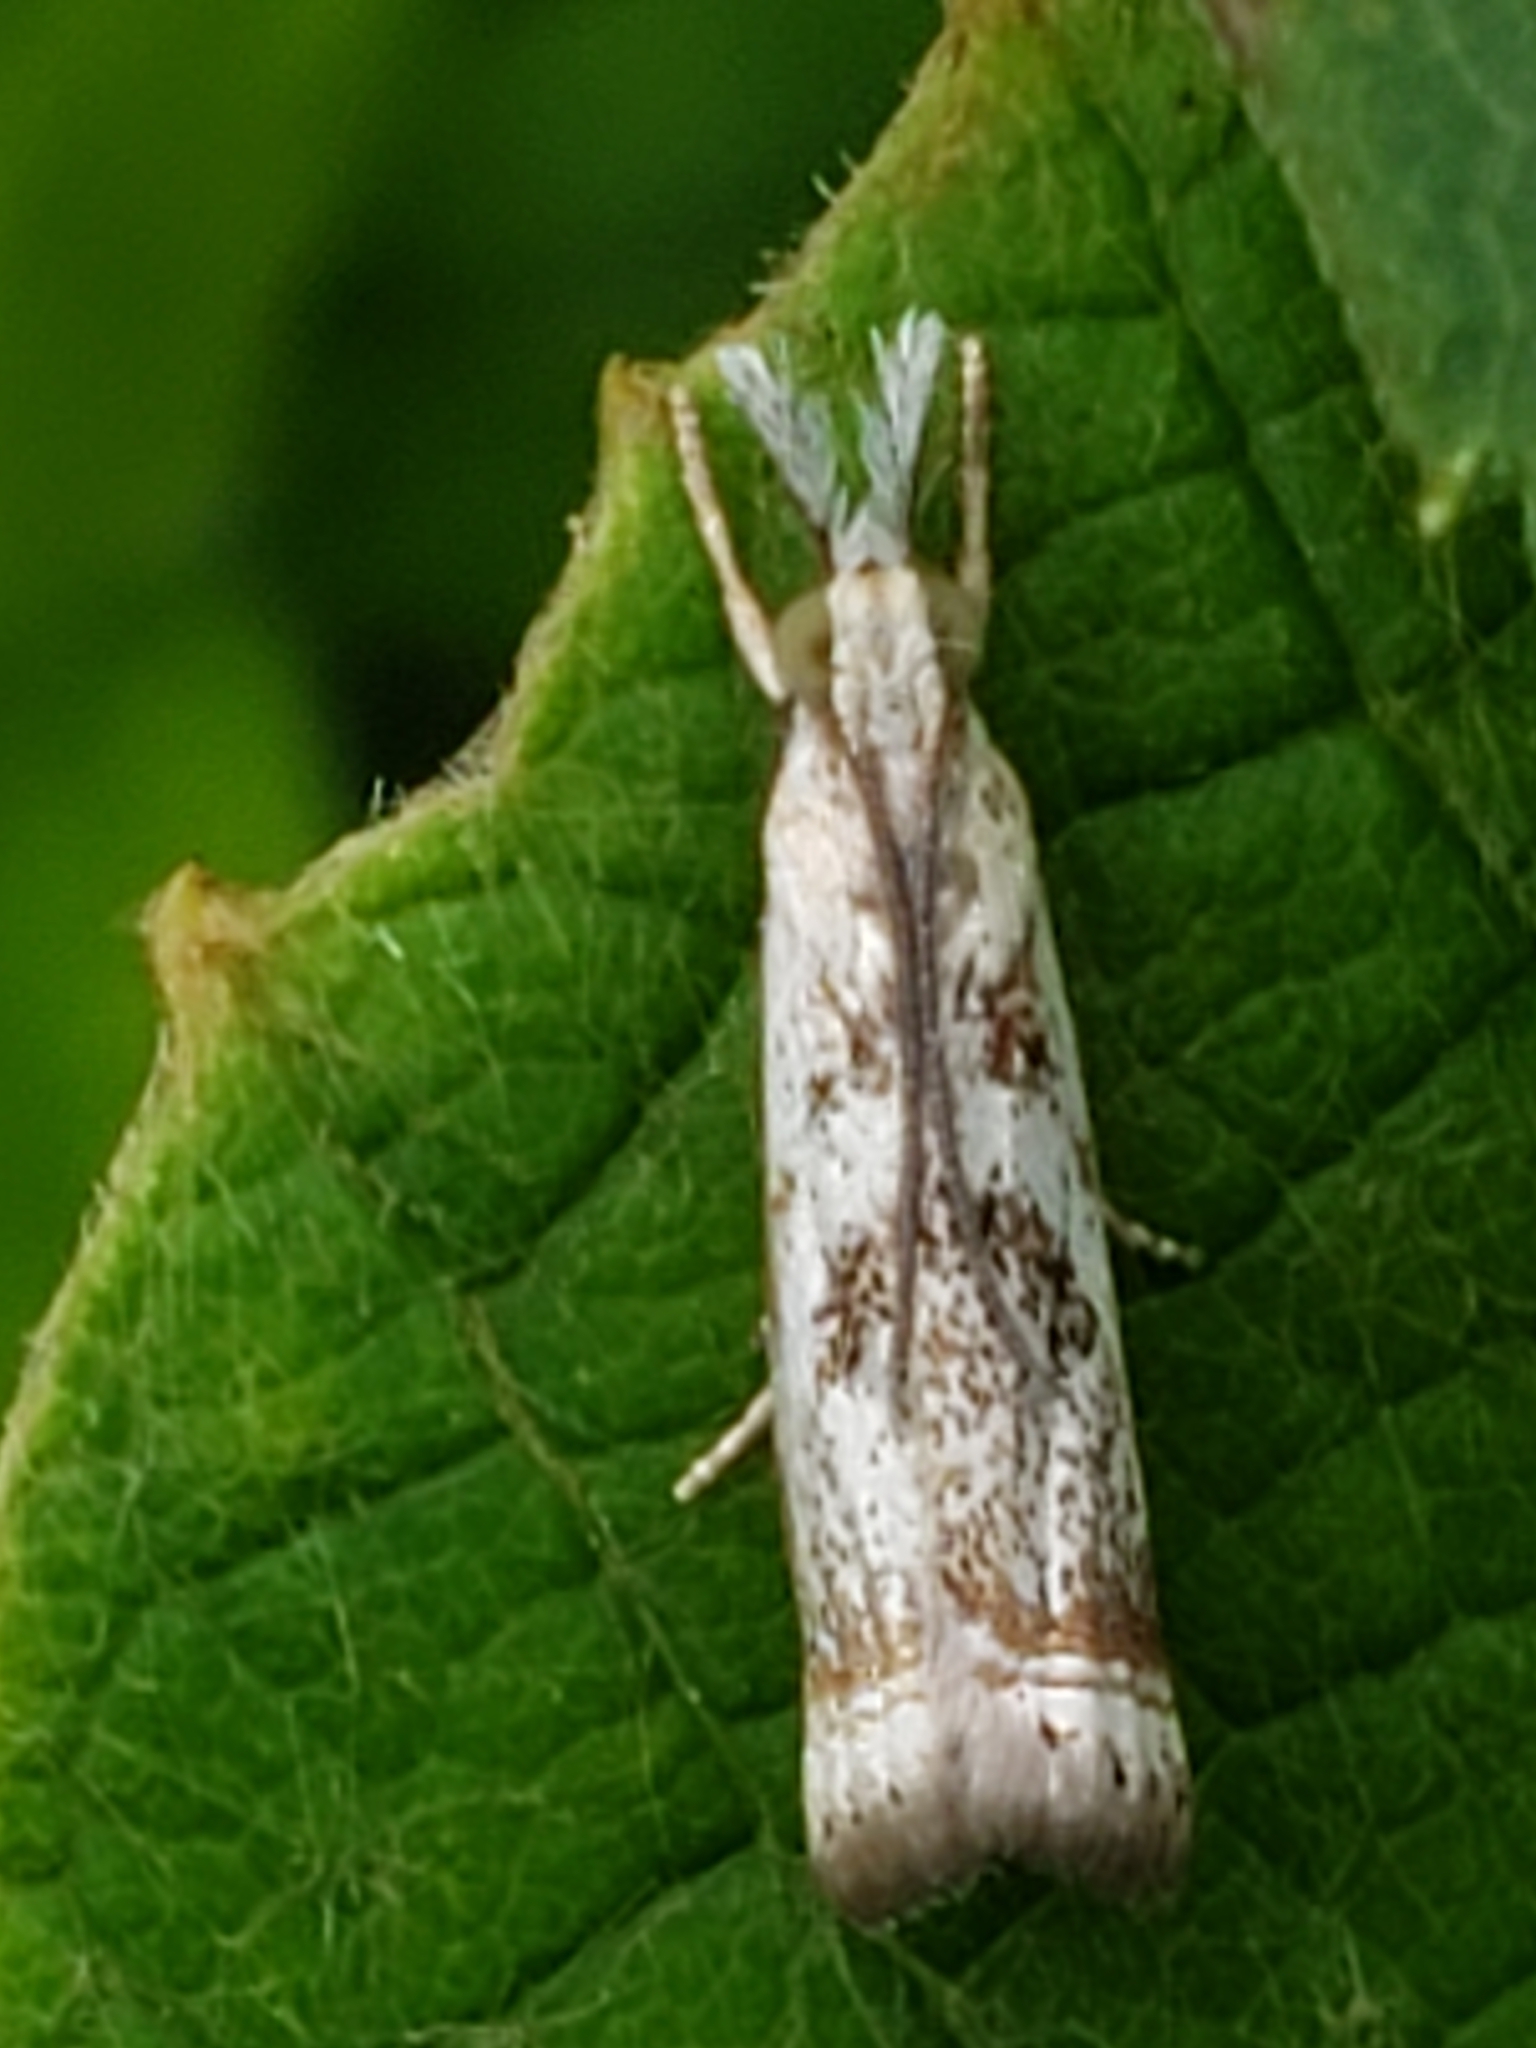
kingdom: Animalia
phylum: Arthropoda
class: Insecta
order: Lepidoptera
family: Crambidae
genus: Microcrambus
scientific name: Microcrambus elegans
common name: Elegant grass-veneer
